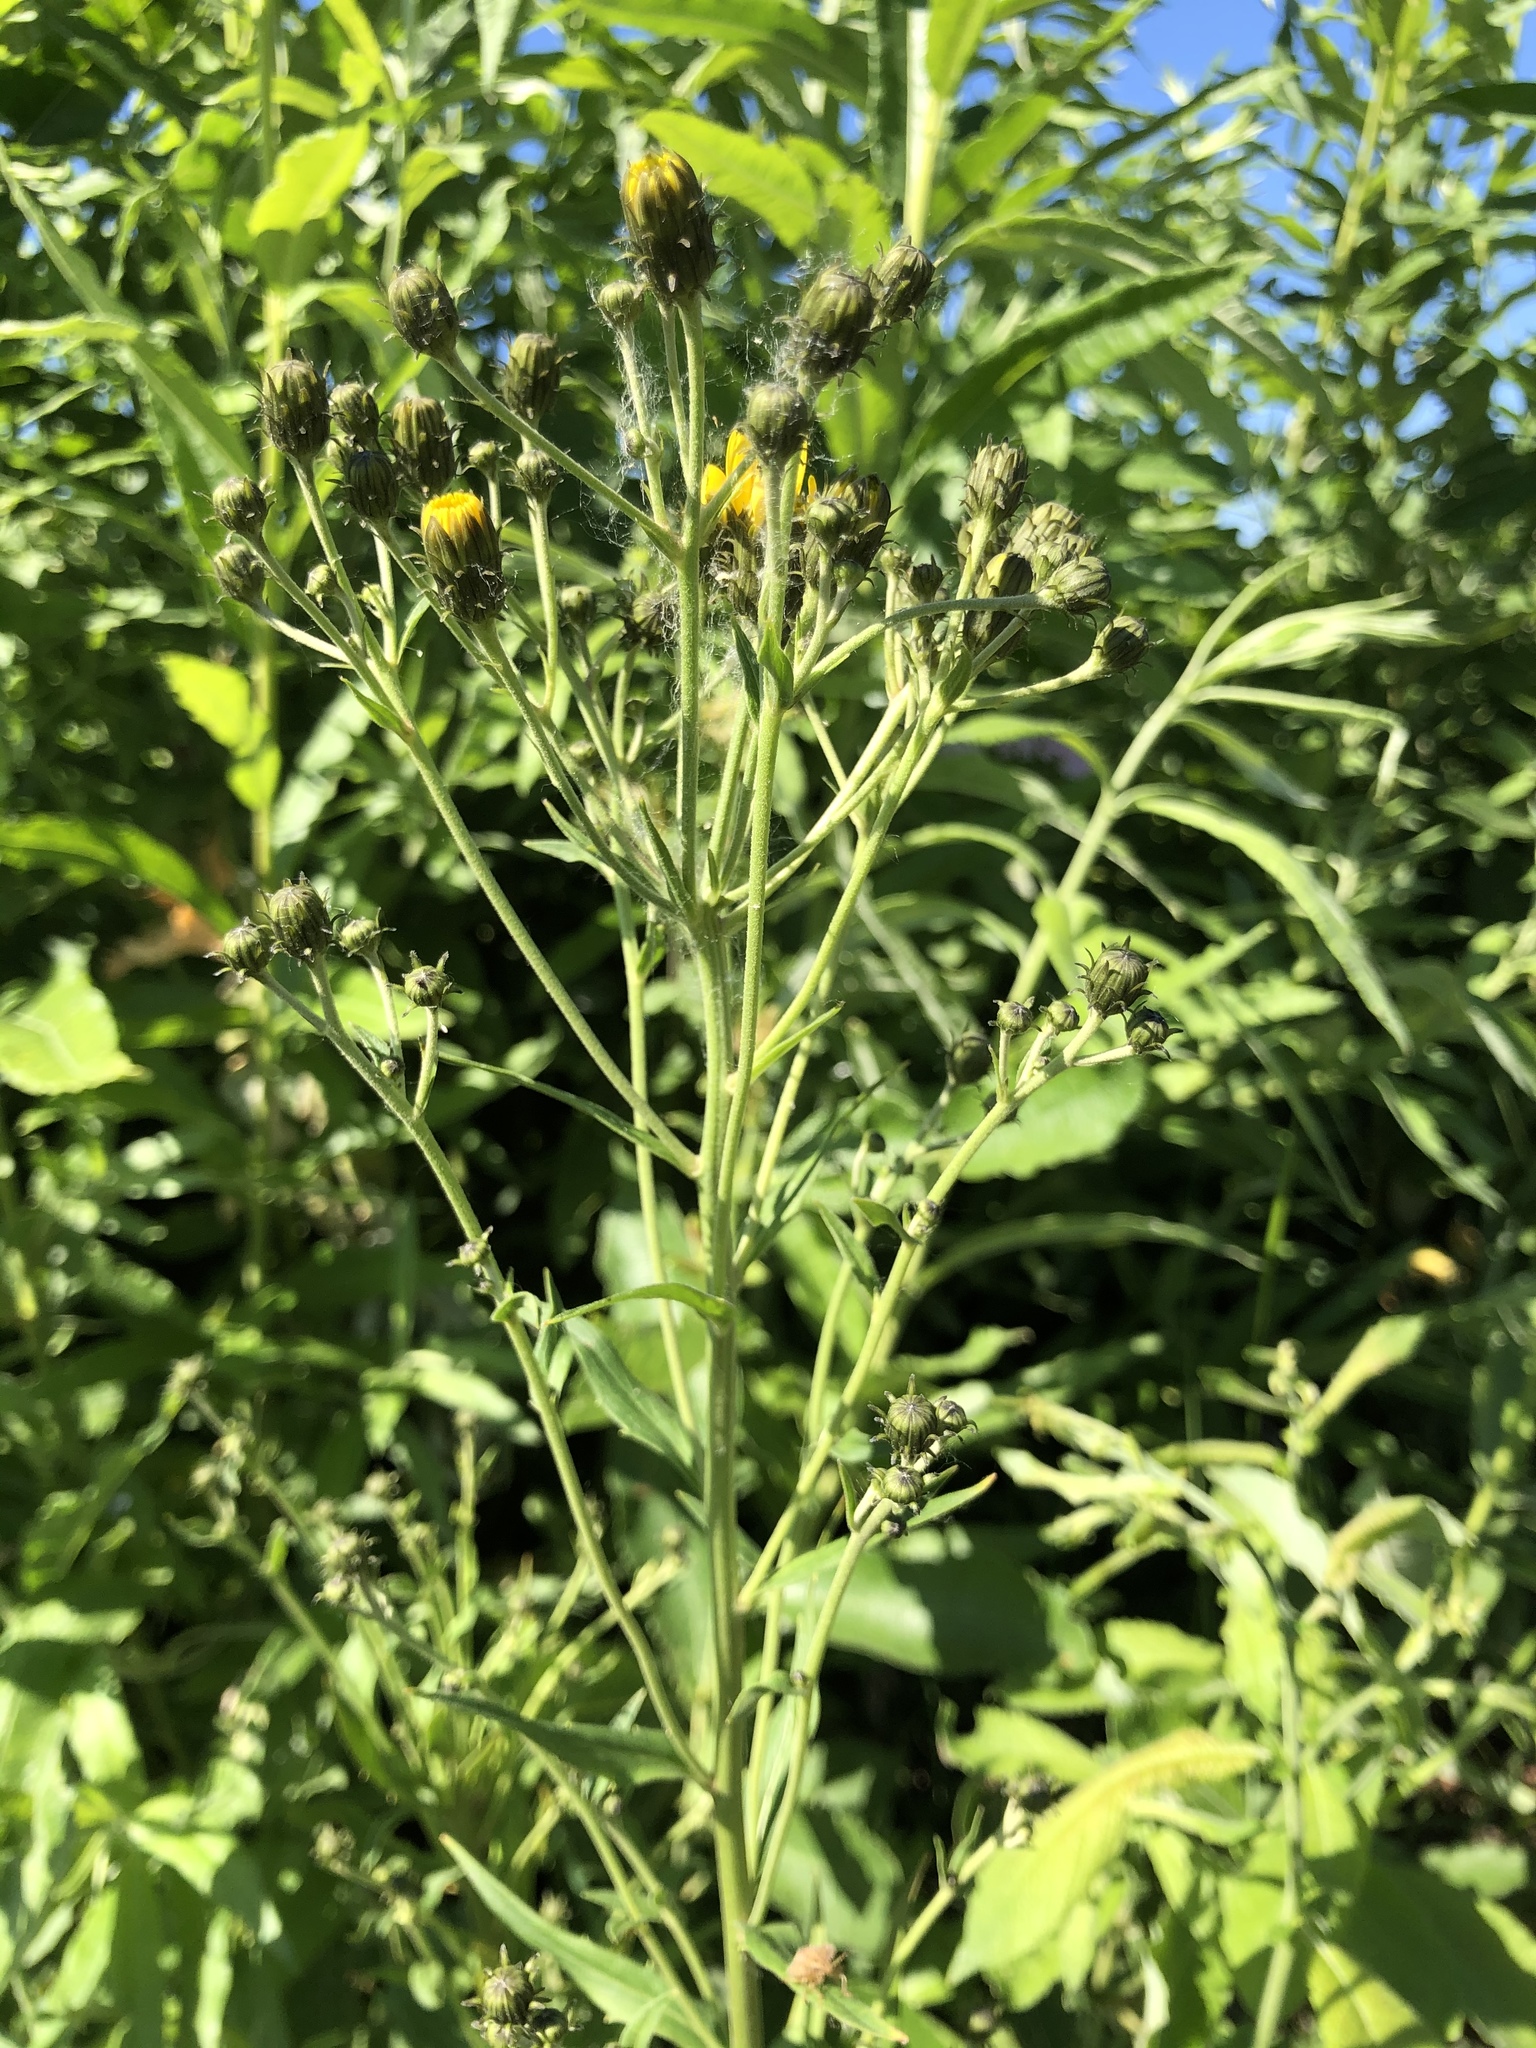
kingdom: Plantae
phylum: Tracheophyta
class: Magnoliopsida
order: Asterales
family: Asteraceae
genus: Hieracium
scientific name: Hieracium umbellatum
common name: Northern hawkweed
